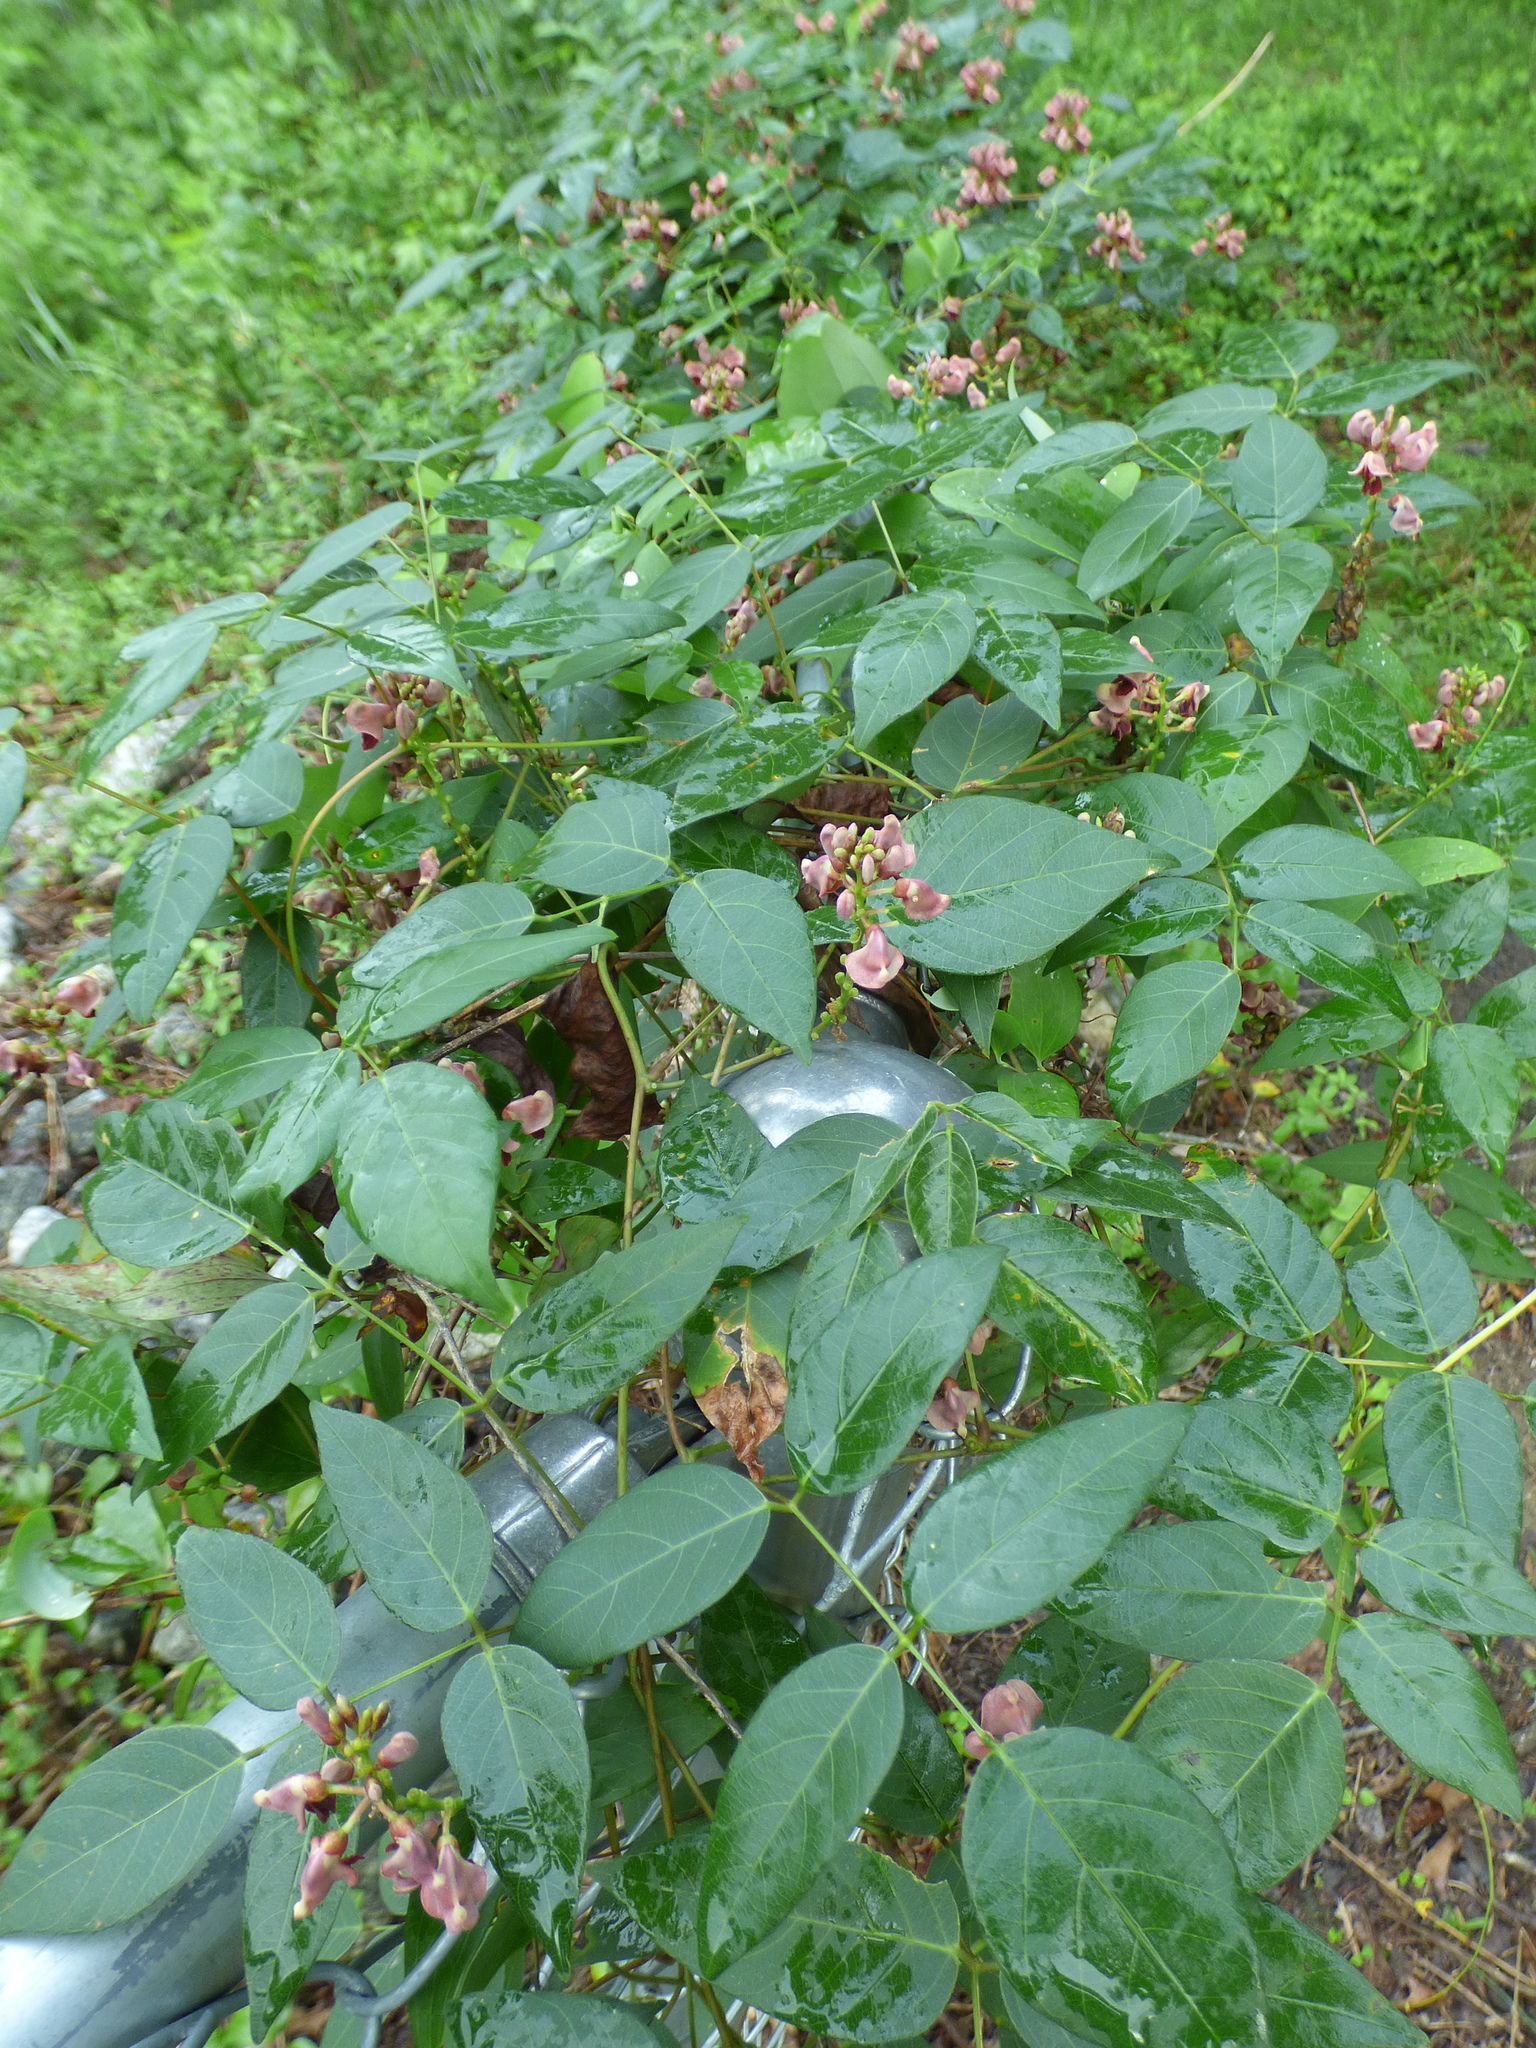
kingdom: Plantae
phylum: Tracheophyta
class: Magnoliopsida
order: Fabales
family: Fabaceae
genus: Apios
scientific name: Apios americana
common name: American potato-bean
